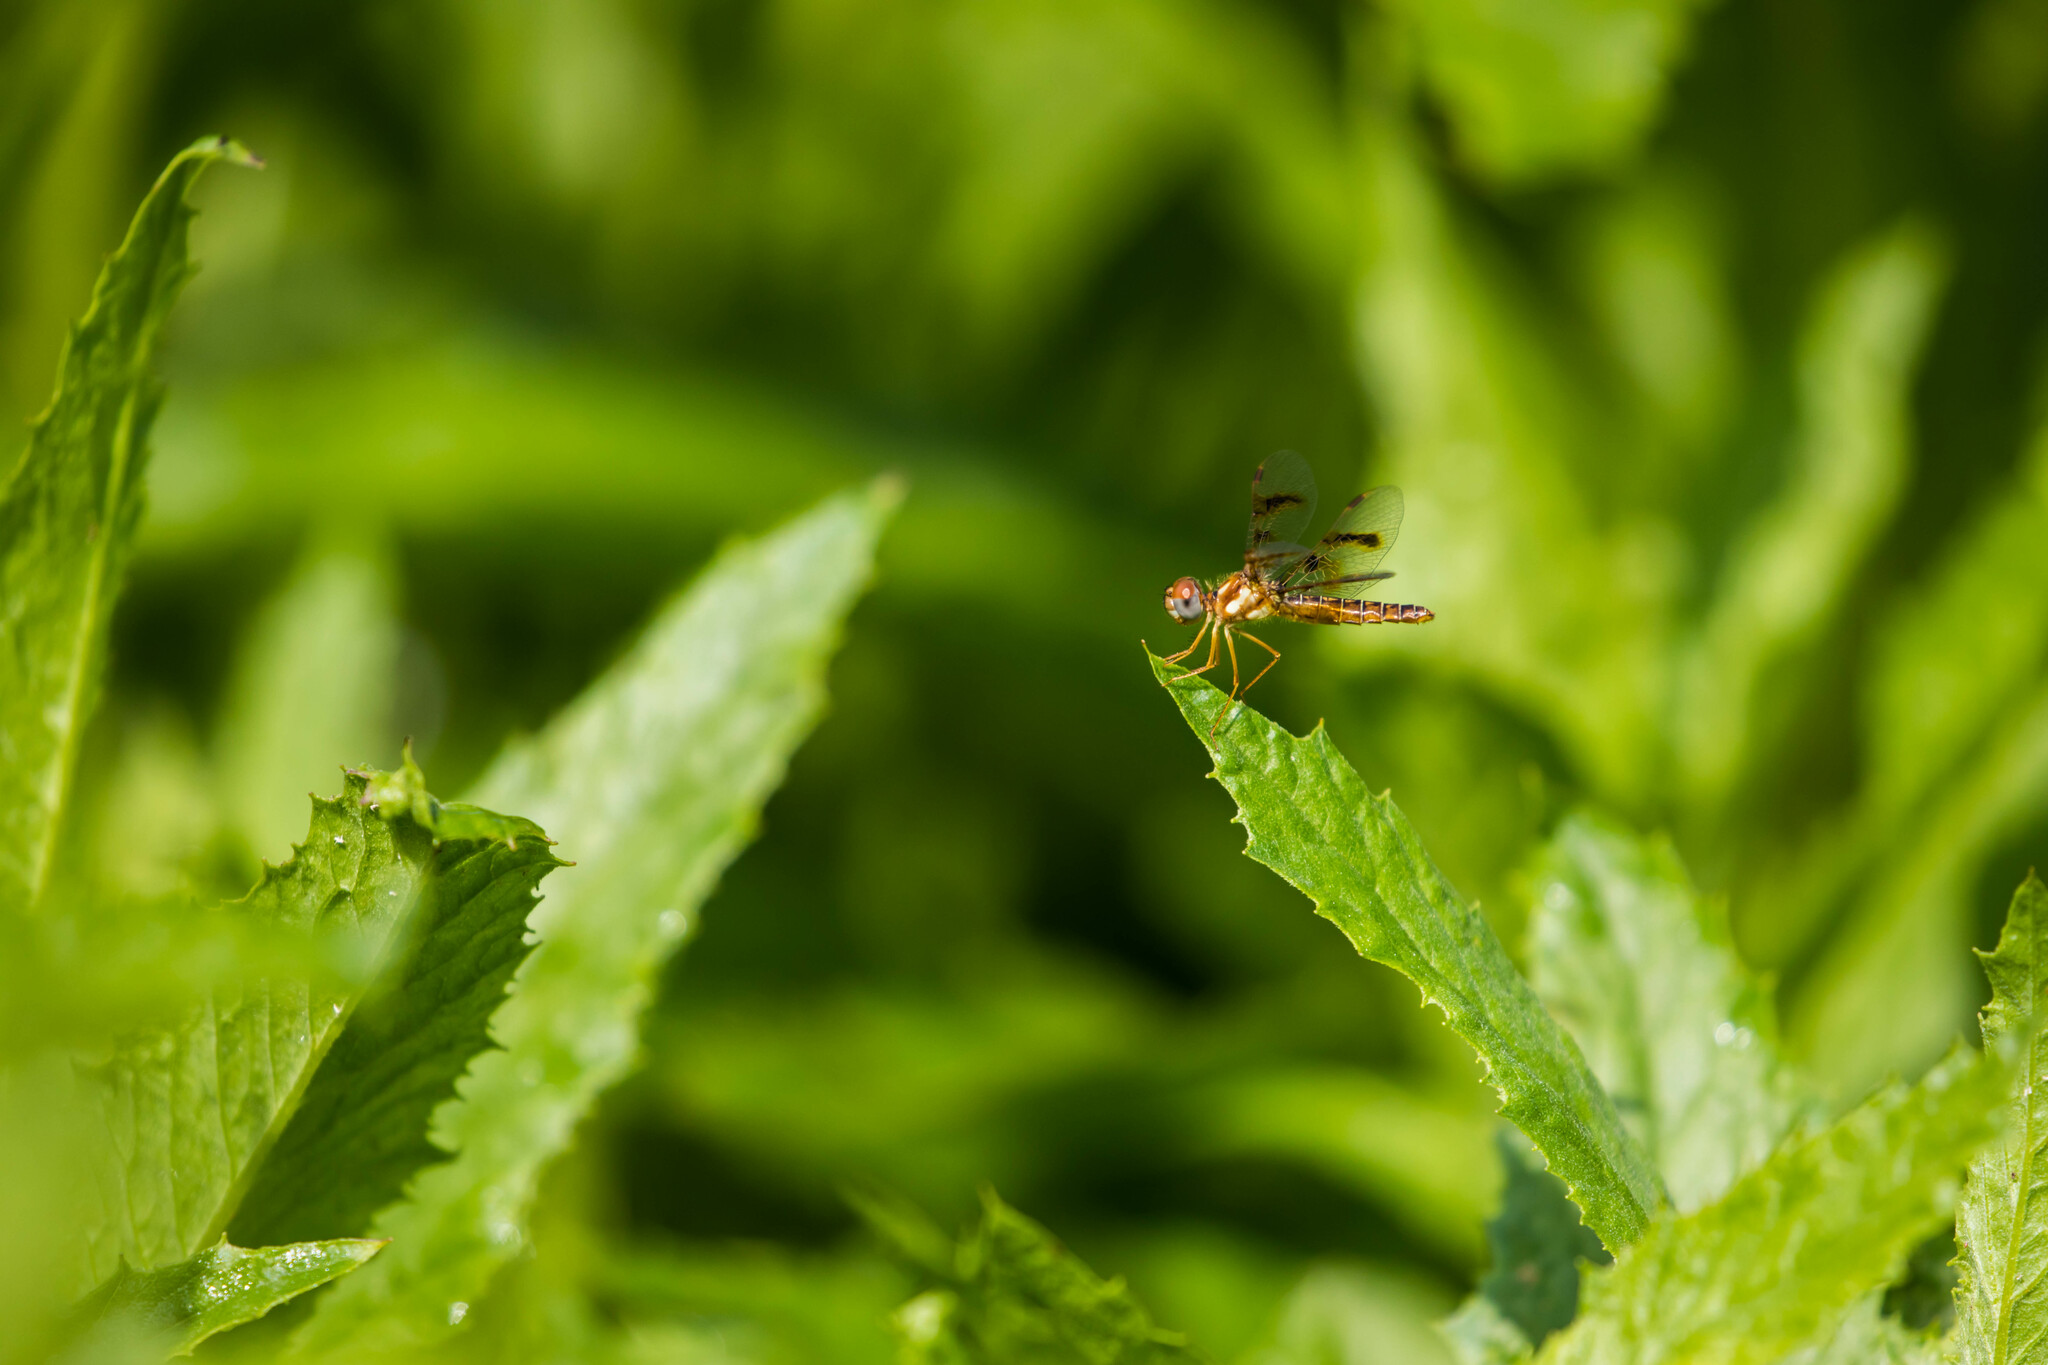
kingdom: Animalia
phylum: Arthropoda
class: Insecta
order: Odonata
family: Libellulidae
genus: Perithemis
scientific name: Perithemis tenera
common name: Eastern amberwing
